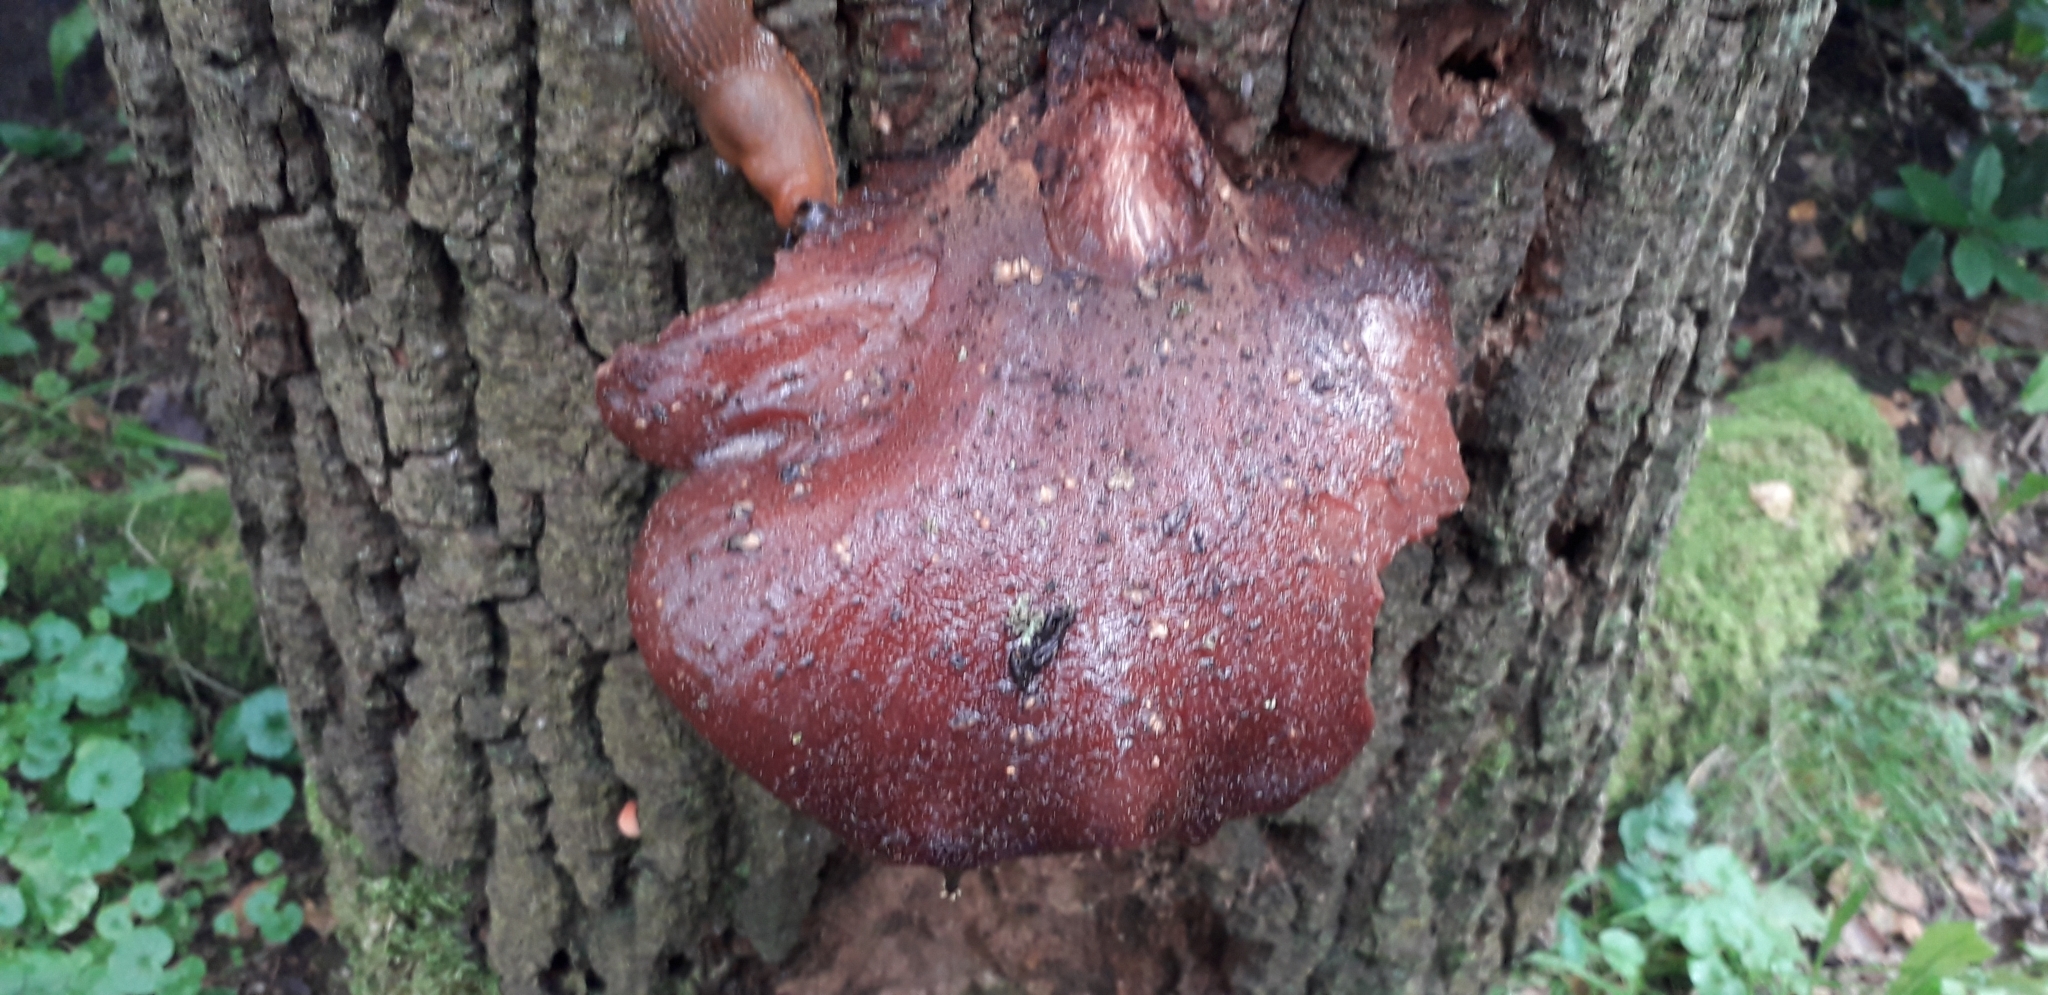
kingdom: Fungi
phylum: Basidiomycota
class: Agaricomycetes
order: Agaricales
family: Fistulinaceae
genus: Fistulina
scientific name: Fistulina hepatica
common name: Beef-steak fungus
